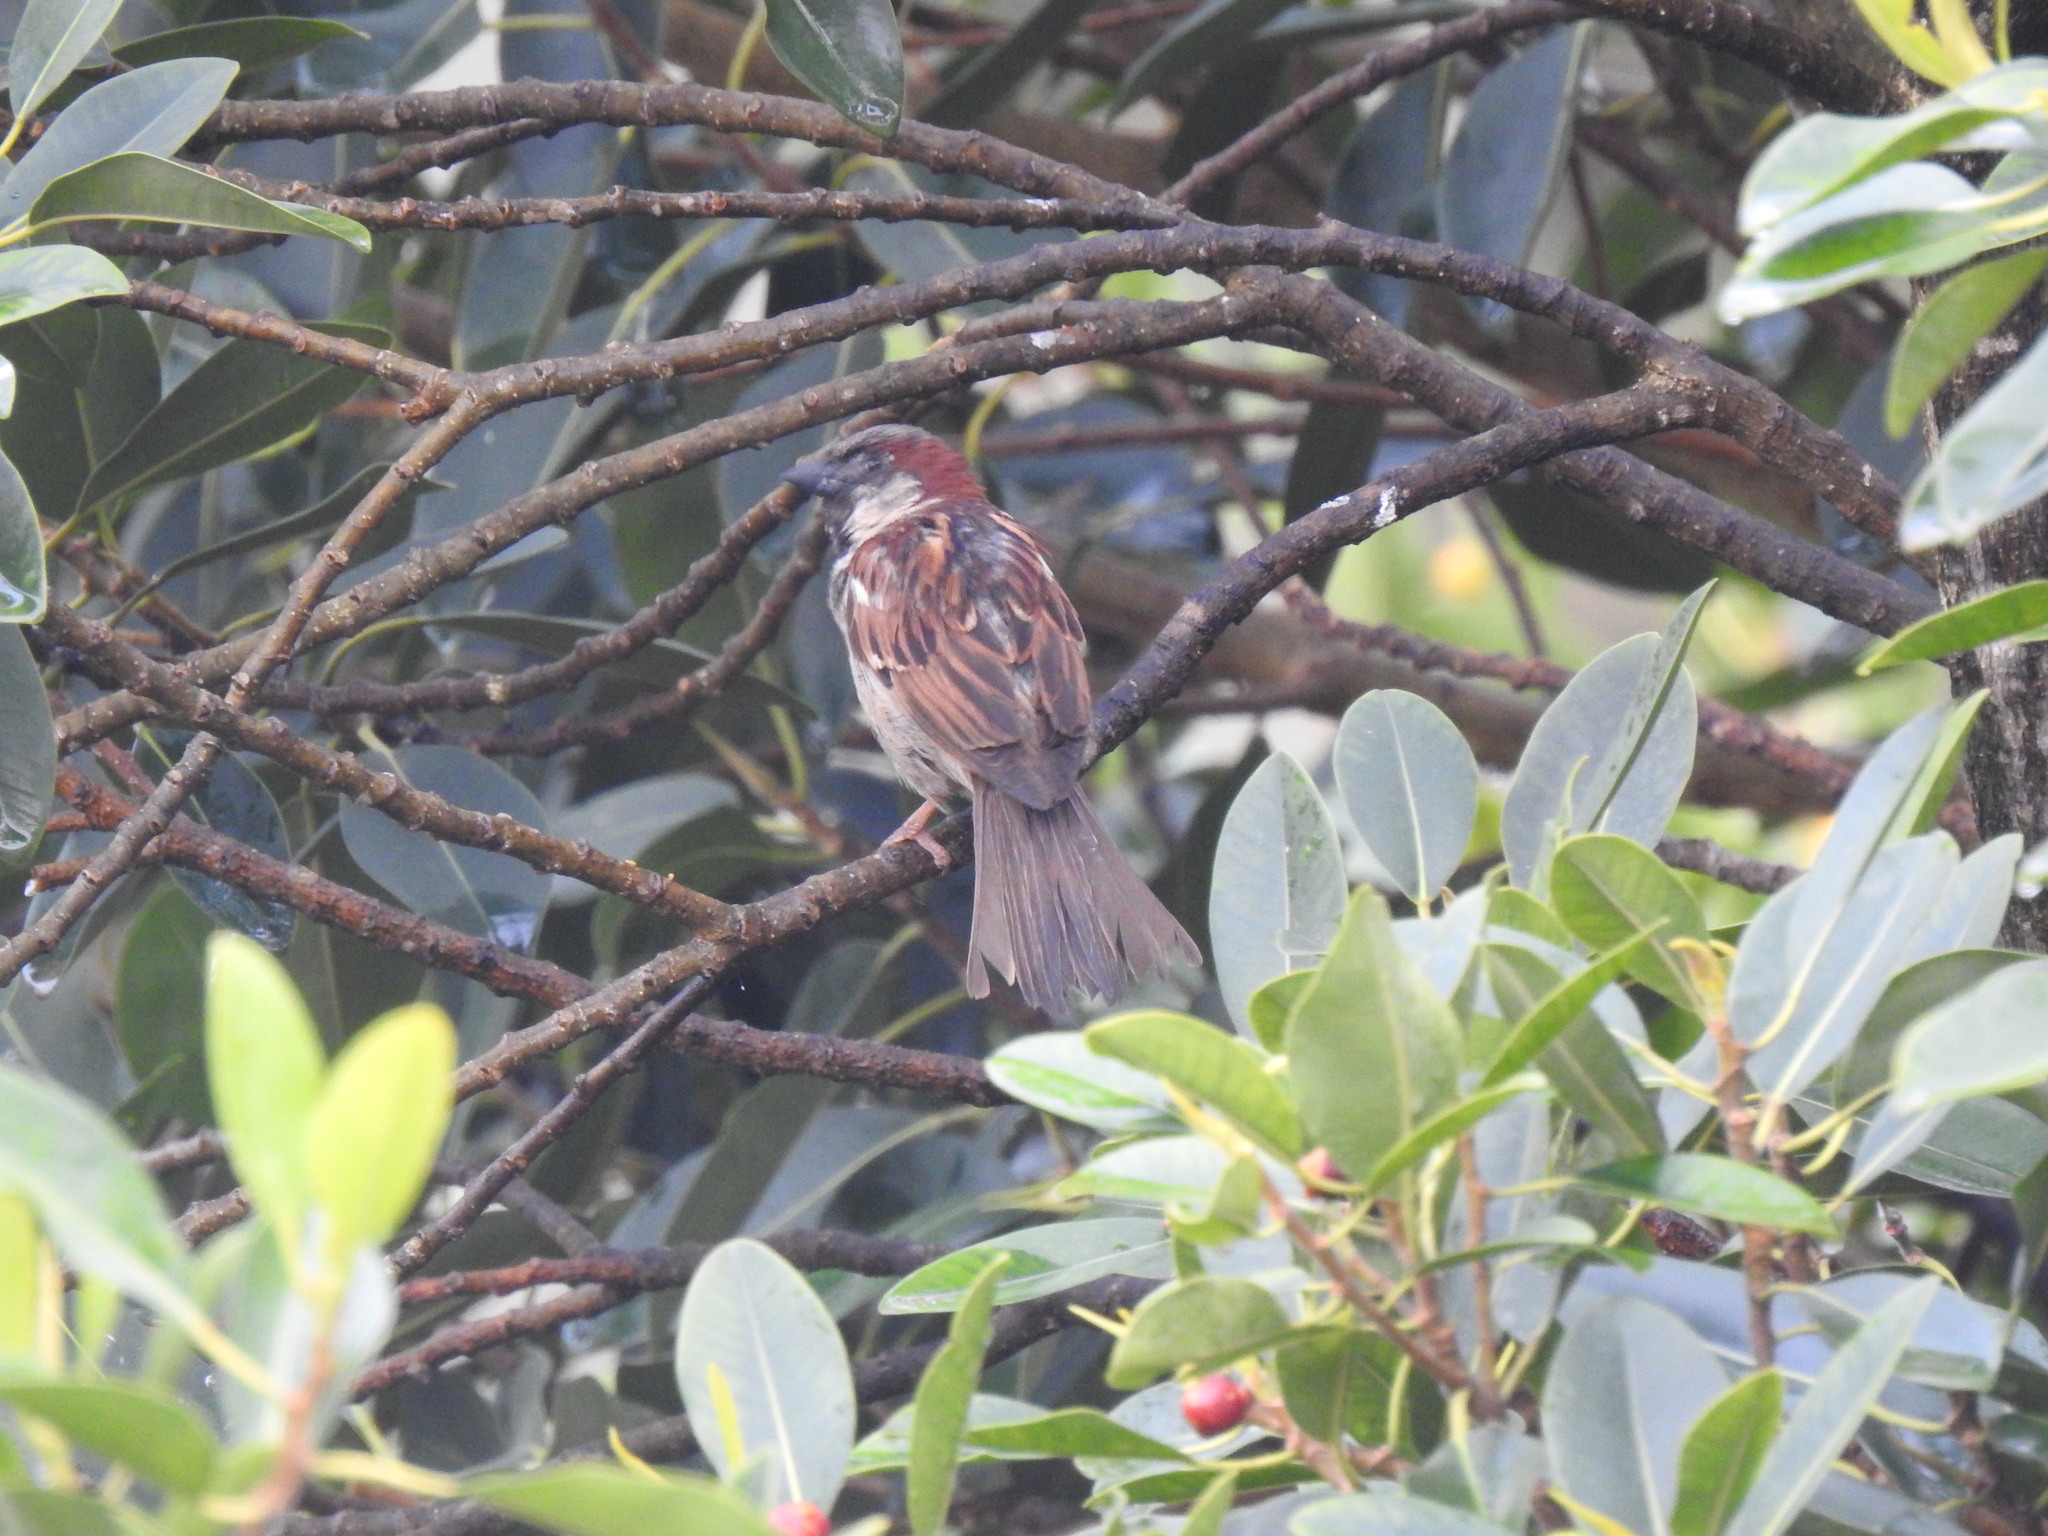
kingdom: Animalia
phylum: Chordata
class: Aves
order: Passeriformes
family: Passeridae
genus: Passer
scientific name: Passer domesticus
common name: House sparrow
